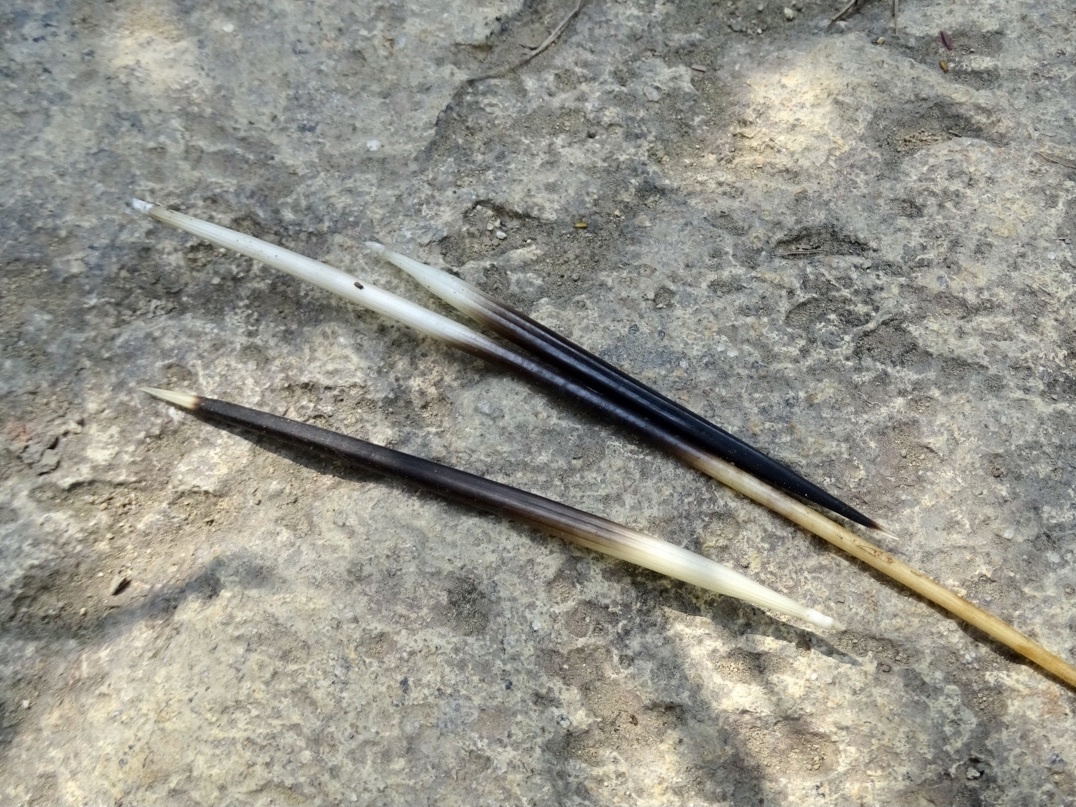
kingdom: Animalia
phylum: Chordata
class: Mammalia
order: Rodentia
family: Hystricidae
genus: Hystrix
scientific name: Hystrix brachyura
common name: Malayan porcupine
